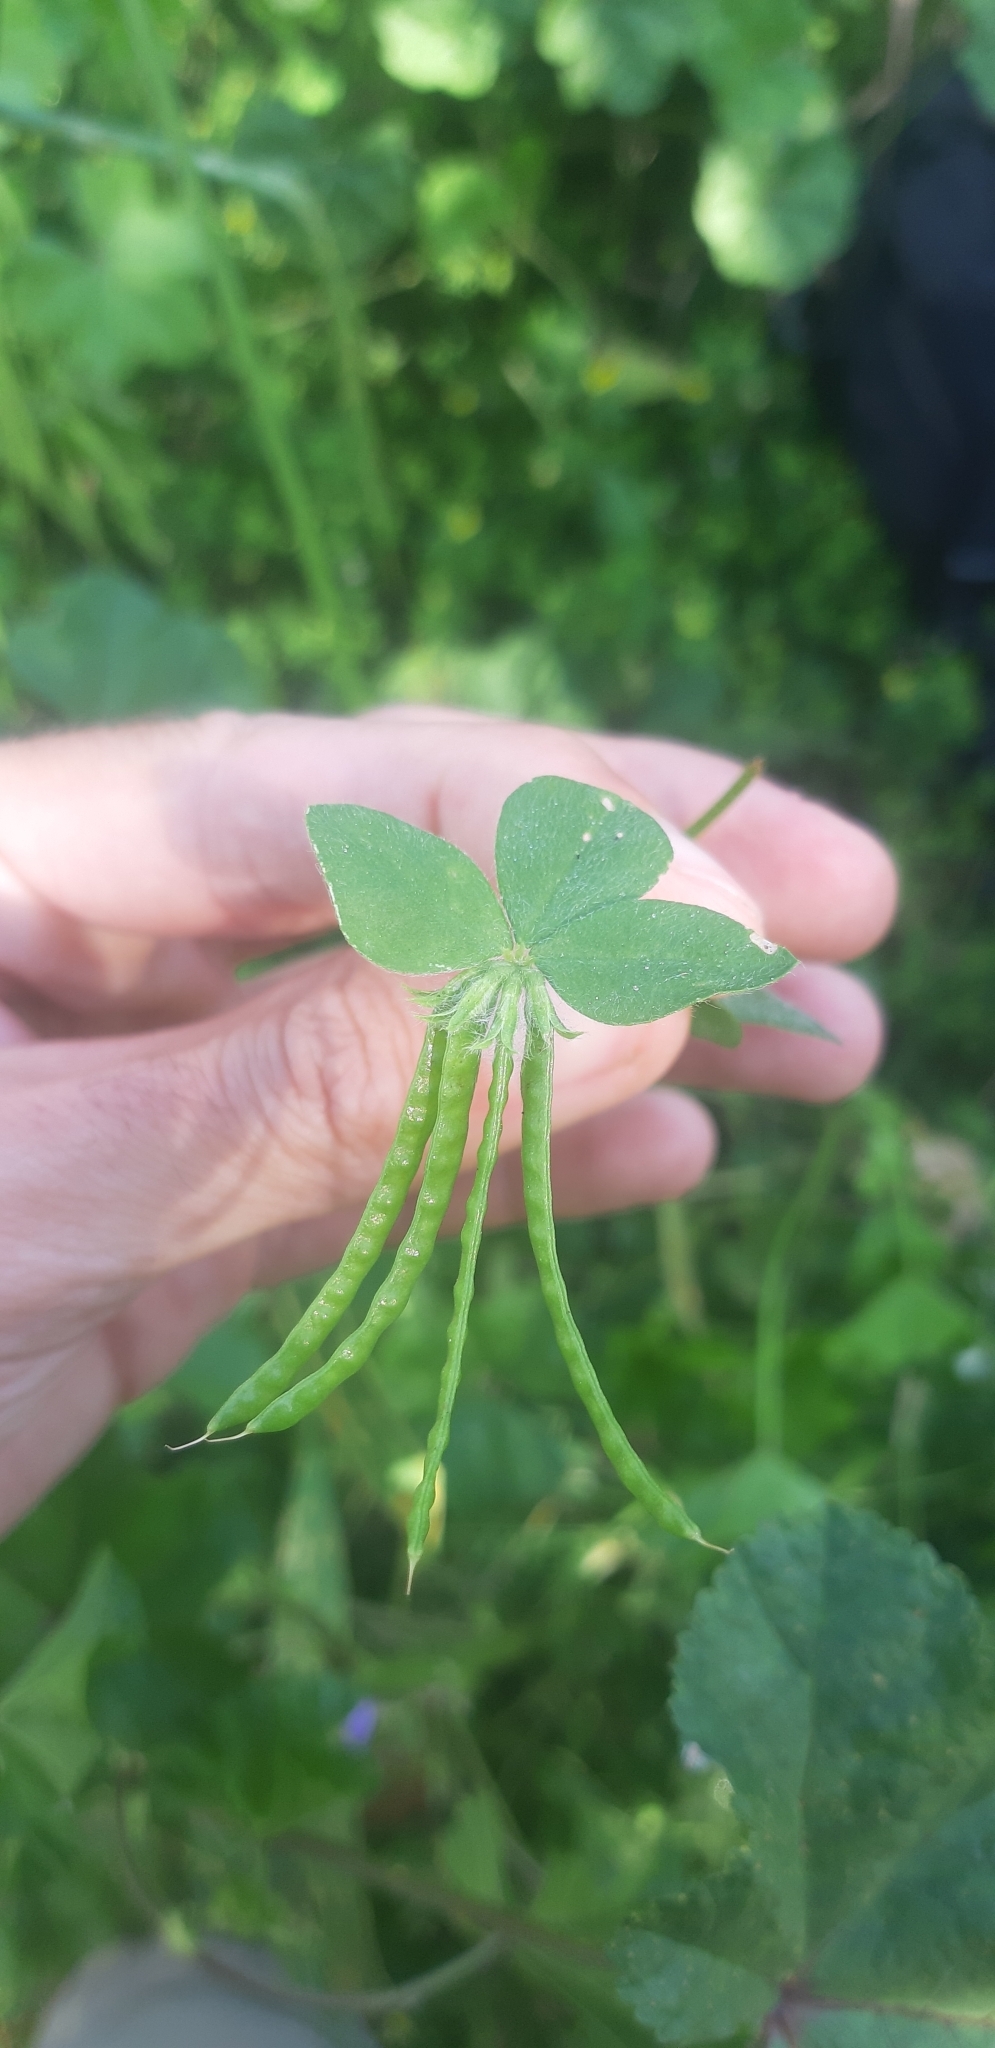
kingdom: Plantae
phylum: Tracheophyta
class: Magnoliopsida
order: Fabales
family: Fabaceae
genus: Lotus
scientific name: Lotus ornithopodioides
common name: Southern bird's-foot trefoil
